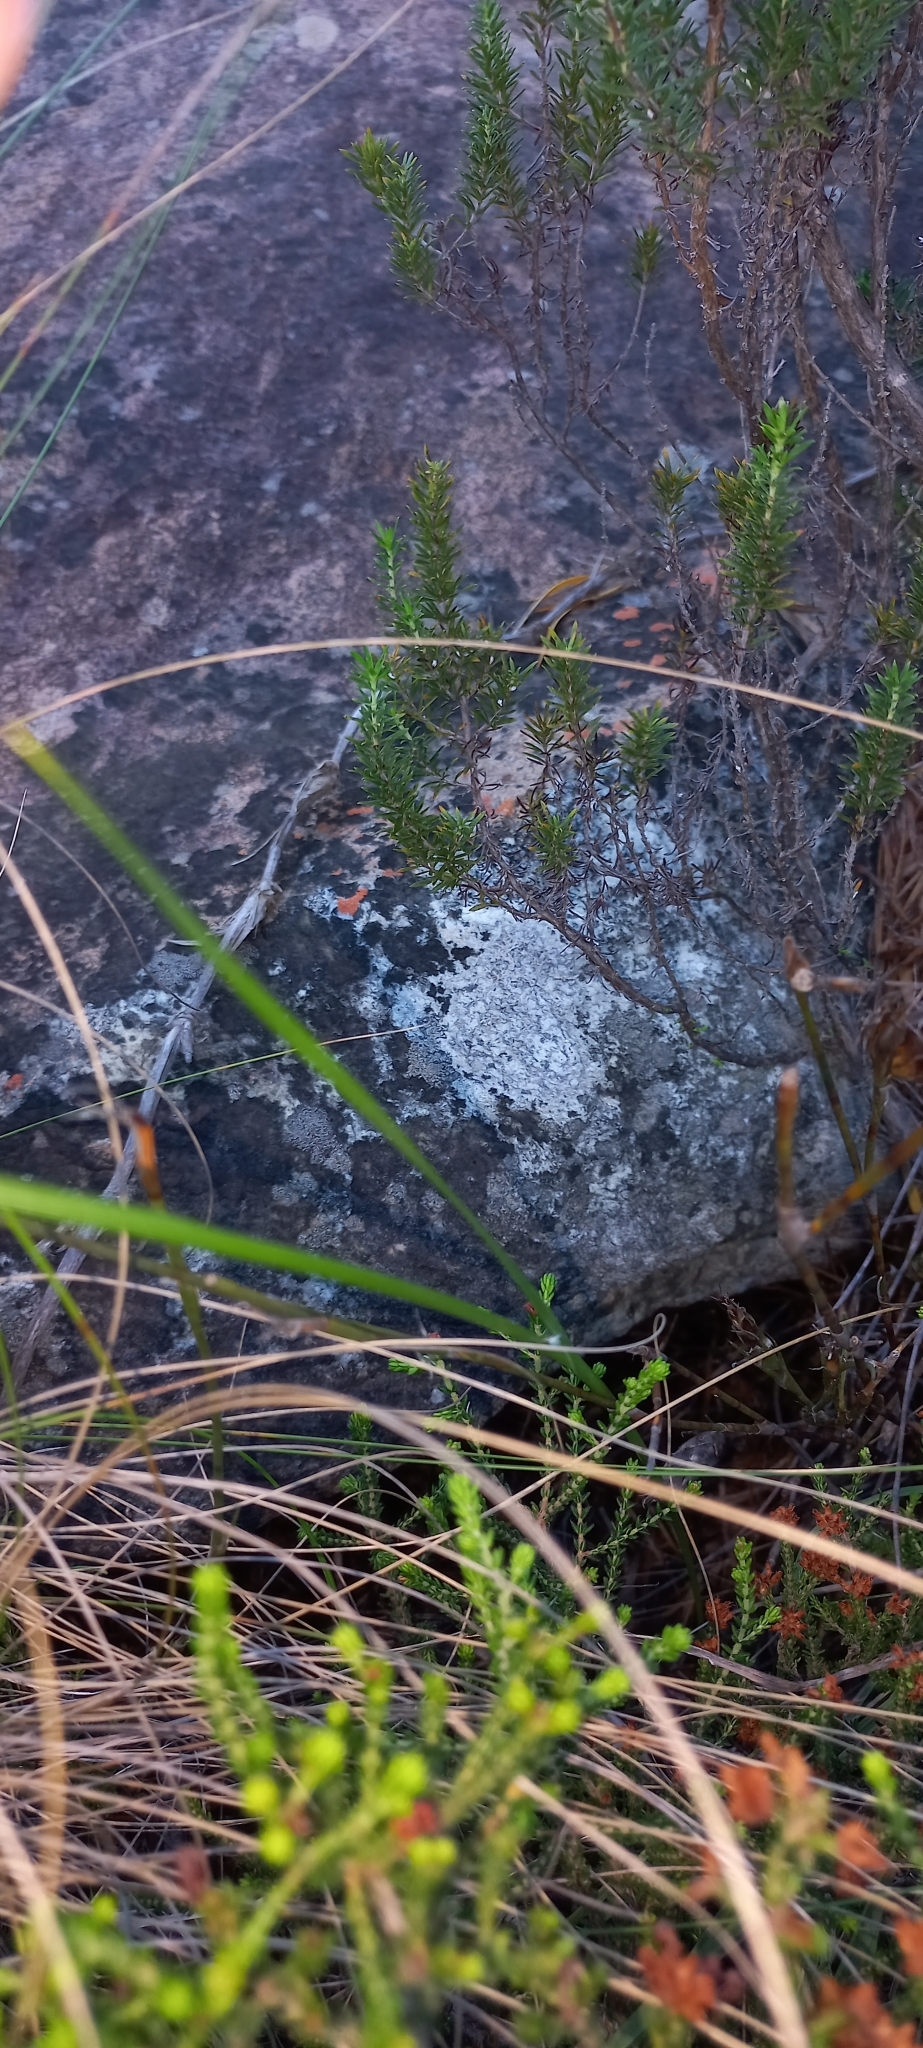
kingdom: Plantae
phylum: Tracheophyta
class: Liliopsida
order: Asparagales
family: Iridaceae
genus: Gladiolus
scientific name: Gladiolus maculatus
